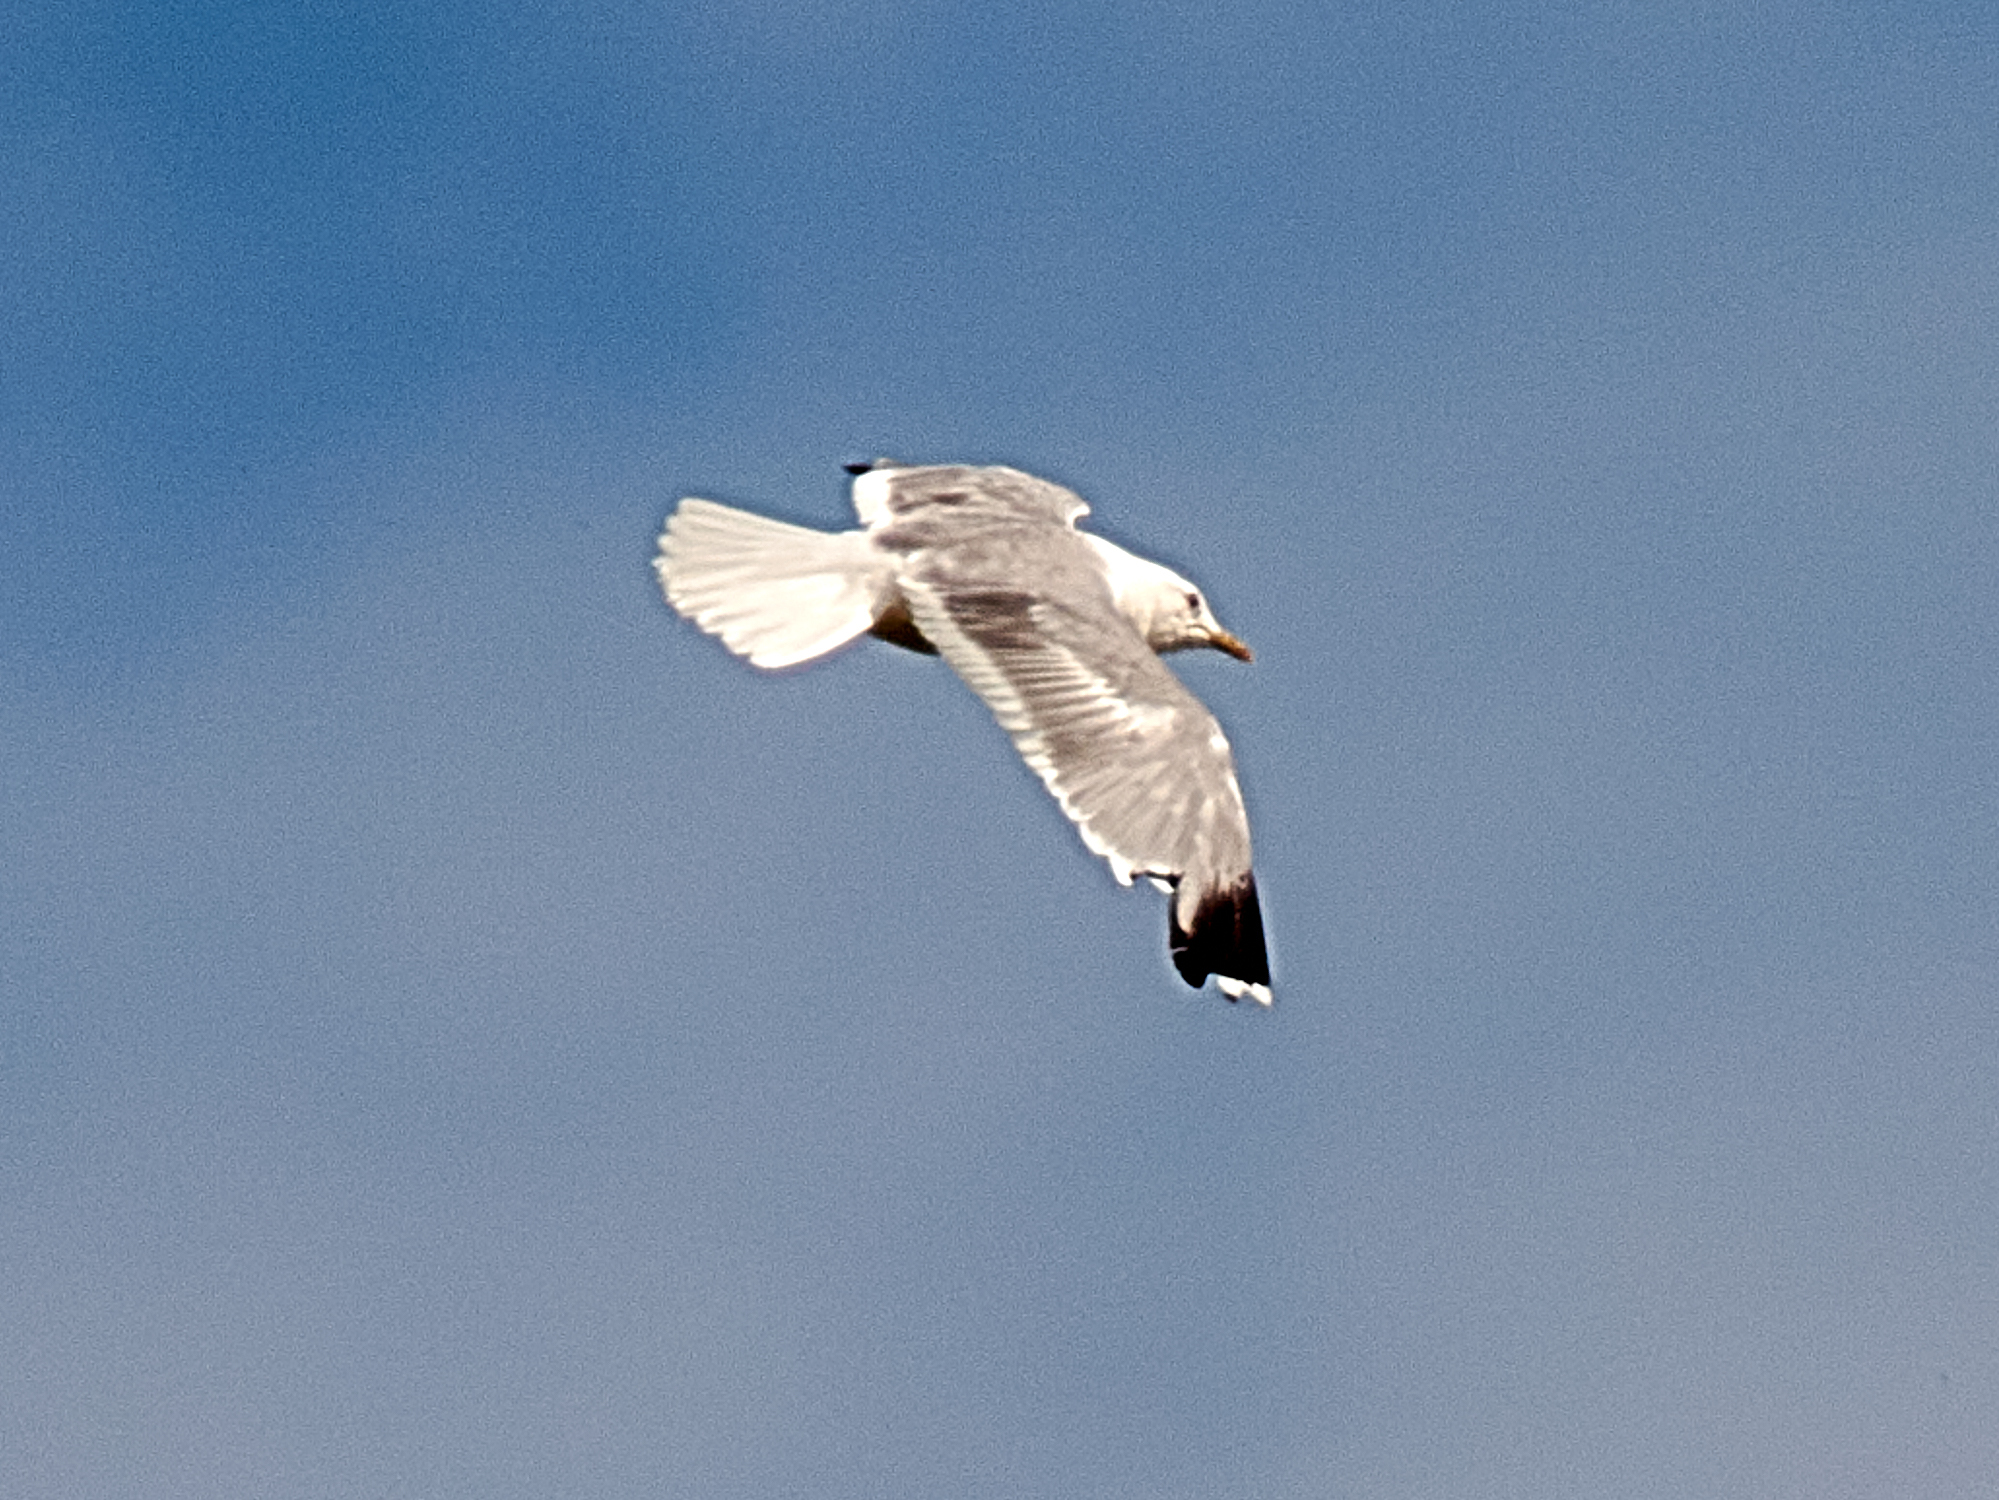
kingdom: Animalia
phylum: Chordata
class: Aves
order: Charadriiformes
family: Laridae
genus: Larus
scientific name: Larus canus
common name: Mew gull
